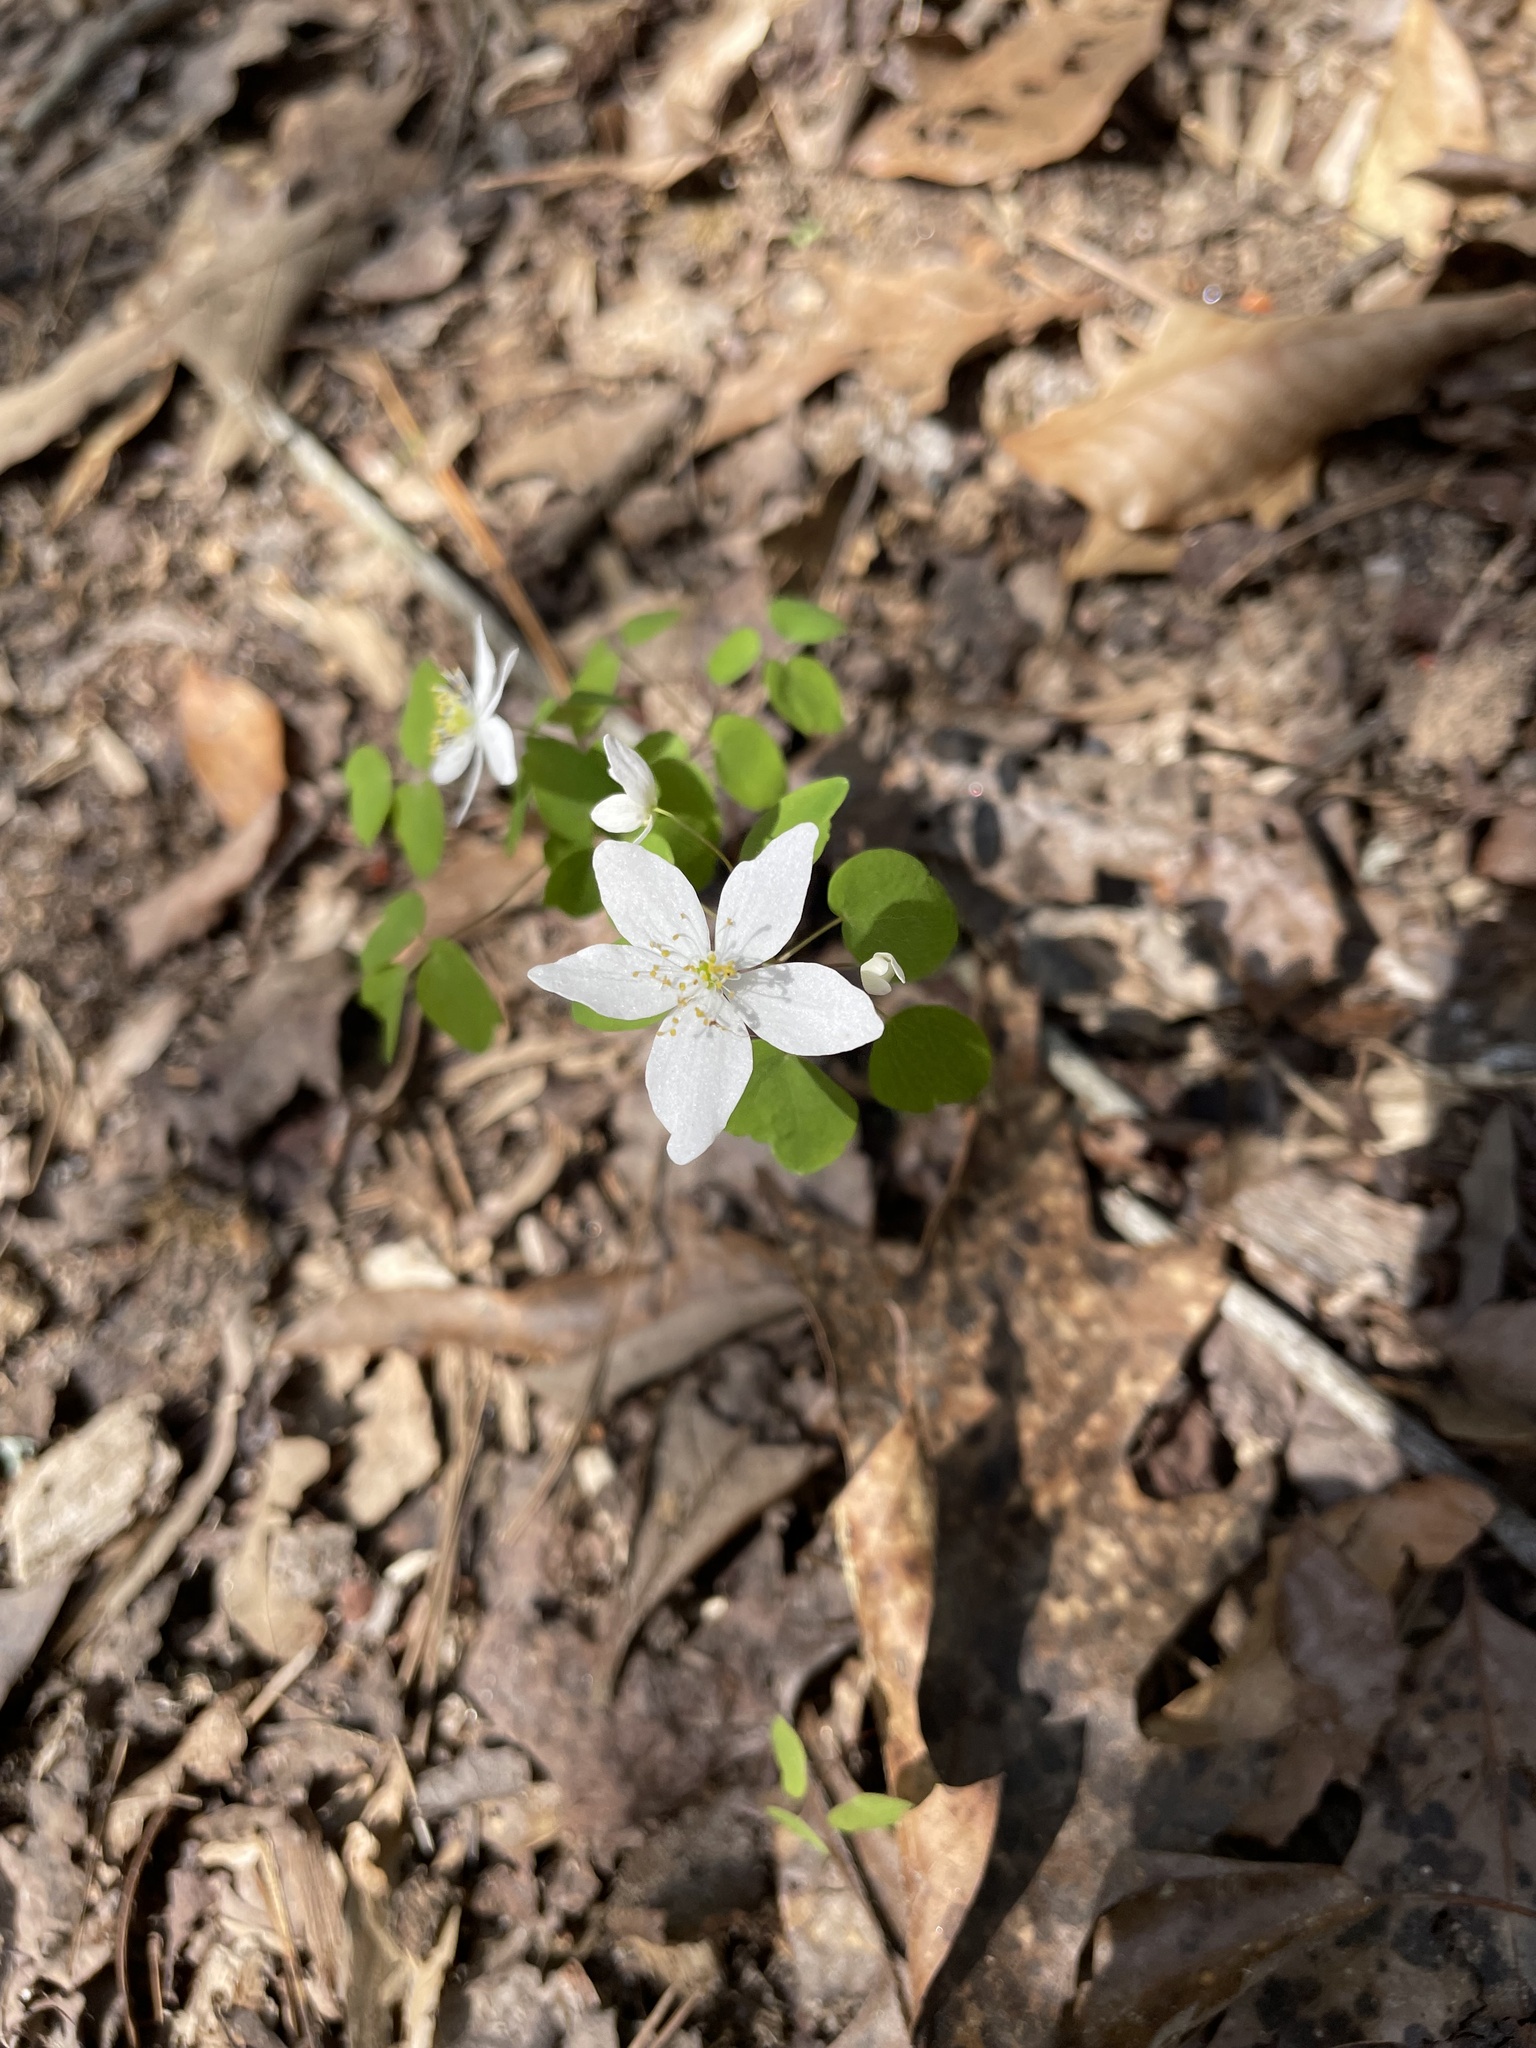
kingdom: Plantae
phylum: Tracheophyta
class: Magnoliopsida
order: Ranunculales
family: Ranunculaceae
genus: Thalictrum
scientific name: Thalictrum thalictroides
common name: Rue-anemone
